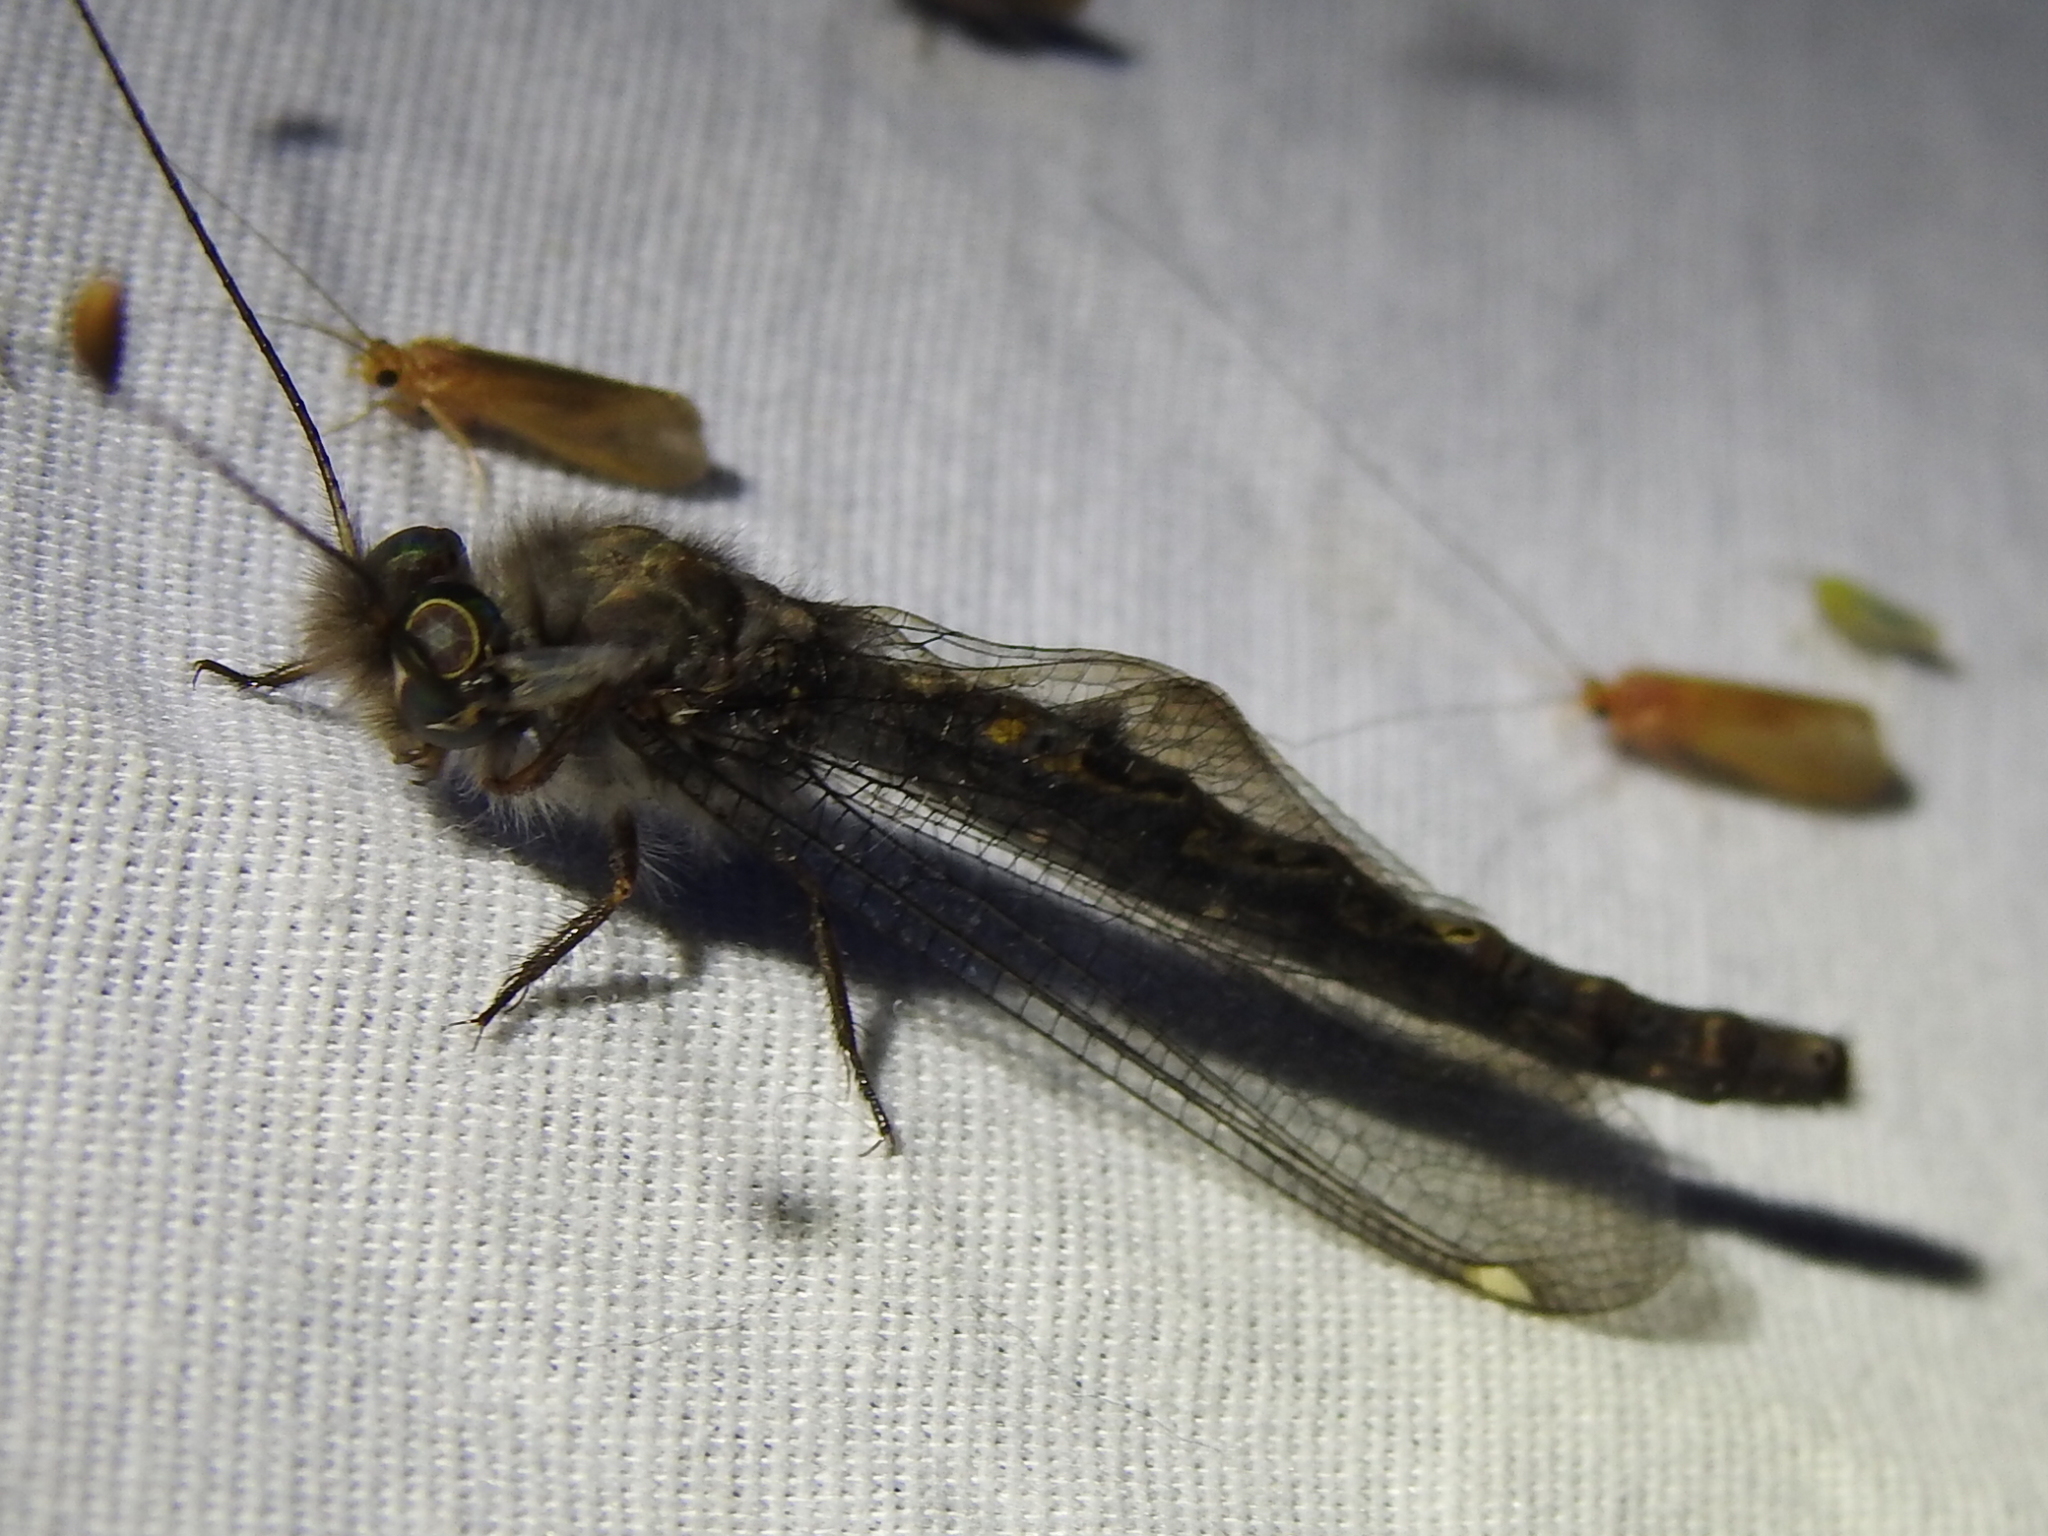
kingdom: Animalia
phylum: Arthropoda
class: Insecta
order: Neuroptera
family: Ascalaphidae
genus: Ululodes
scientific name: Ululodes quadripunctatus
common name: Four-spotted owlfly
